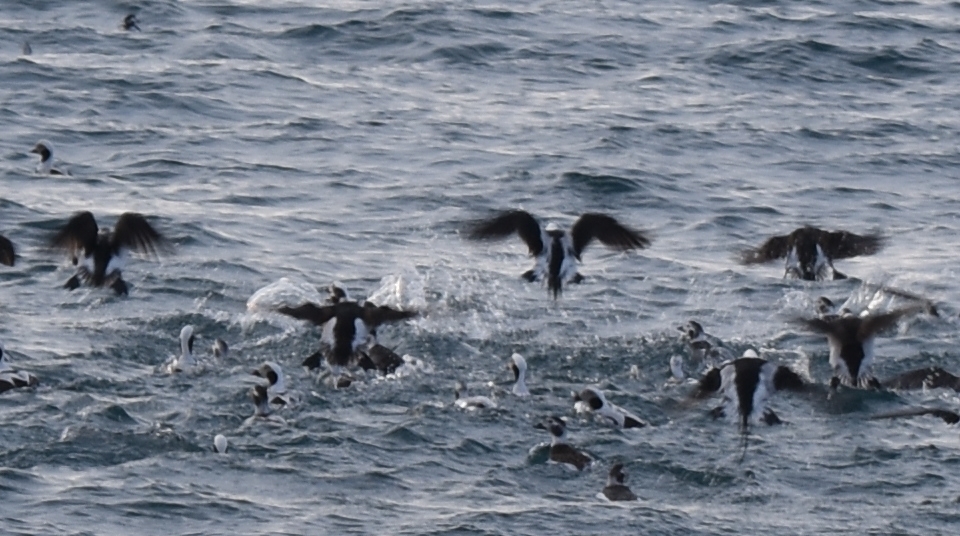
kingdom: Animalia
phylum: Chordata
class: Aves
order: Anseriformes
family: Anatidae
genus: Clangula
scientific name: Clangula hyemalis
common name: Long-tailed duck
